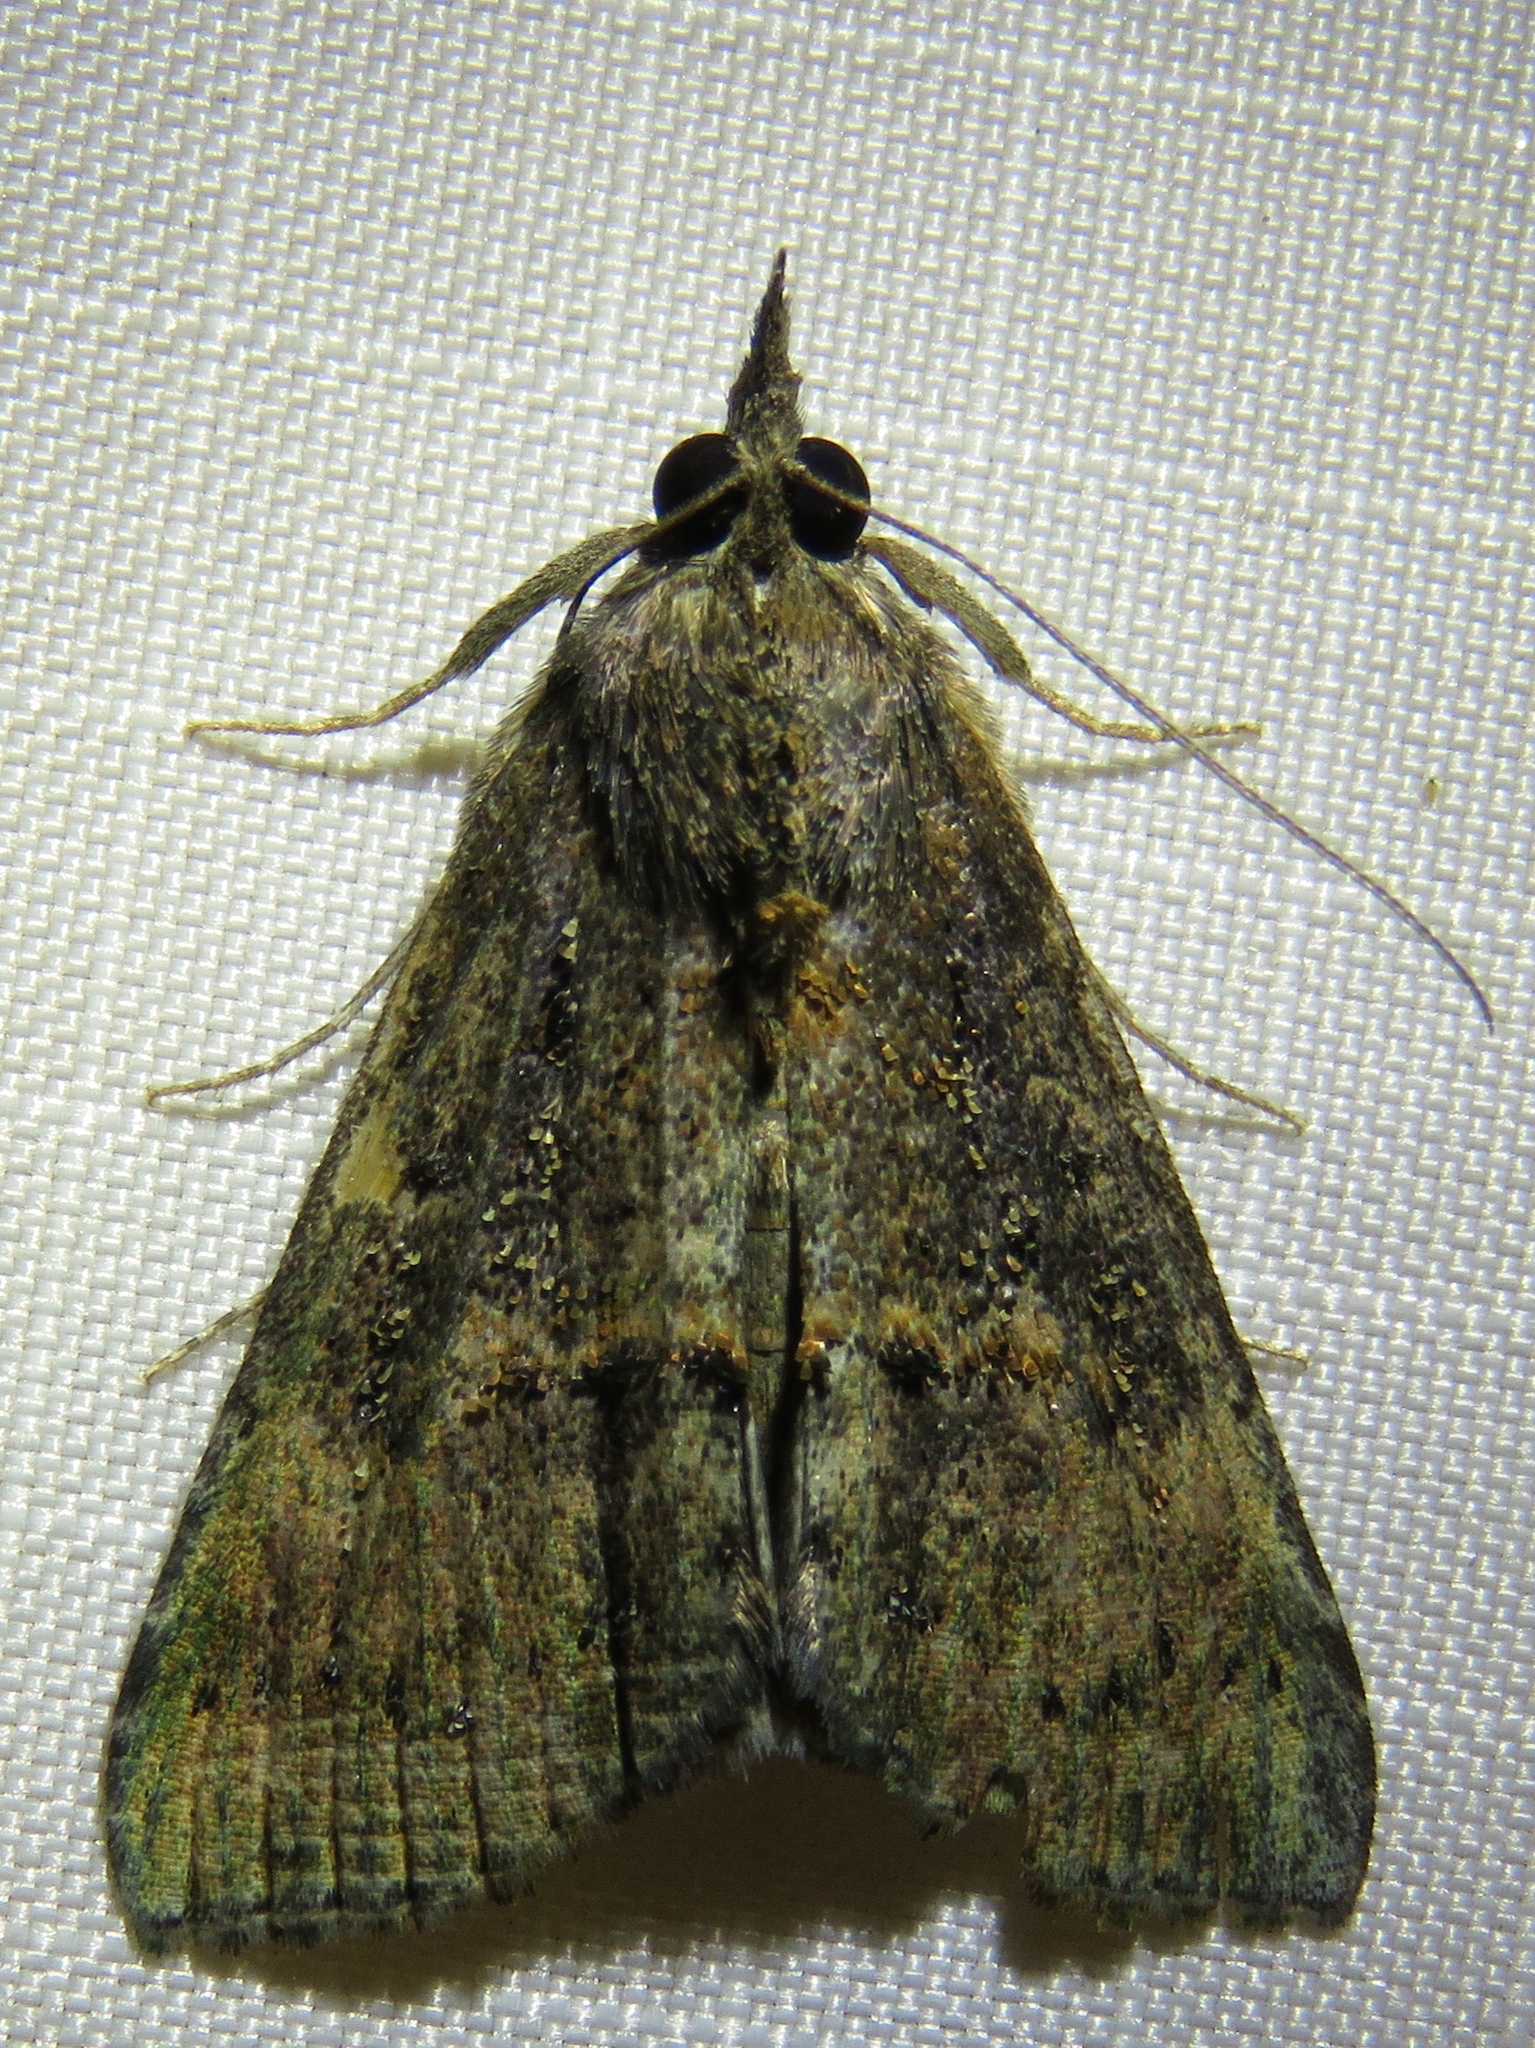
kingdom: Animalia
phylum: Arthropoda
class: Insecta
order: Lepidoptera
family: Erebidae
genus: Hypena
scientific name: Hypena scabra
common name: Green cloverworm
